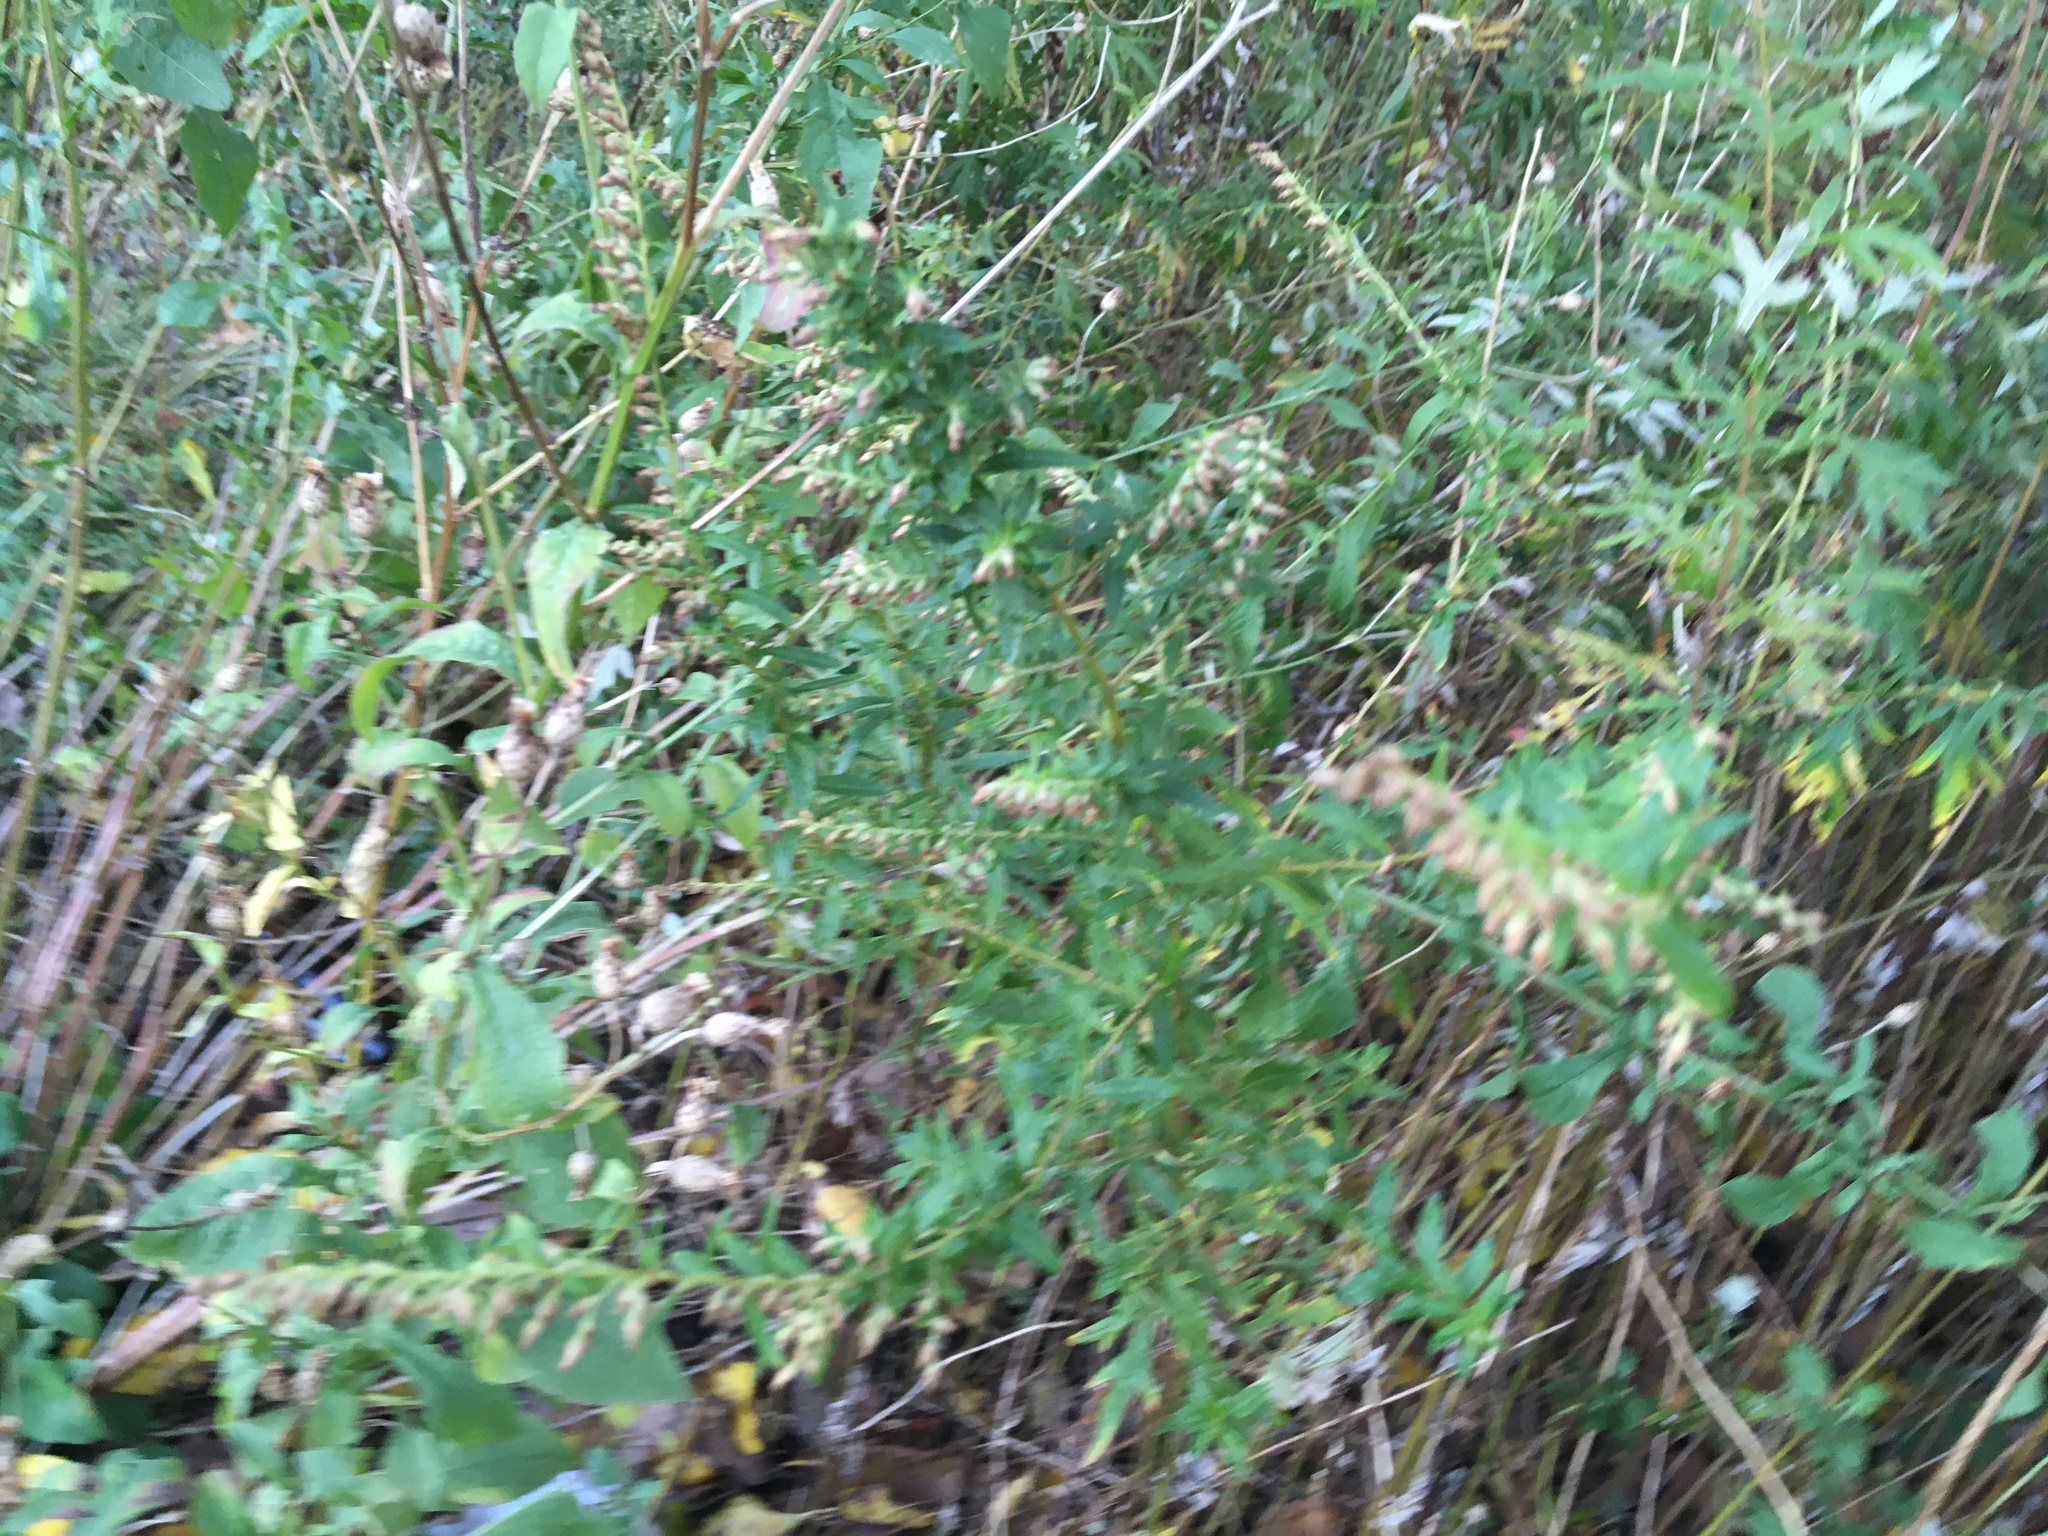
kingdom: Plantae
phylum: Tracheophyta
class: Magnoliopsida
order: Asterales
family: Asteraceae
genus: Artemisia
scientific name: Artemisia vulgaris
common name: Mugwort
